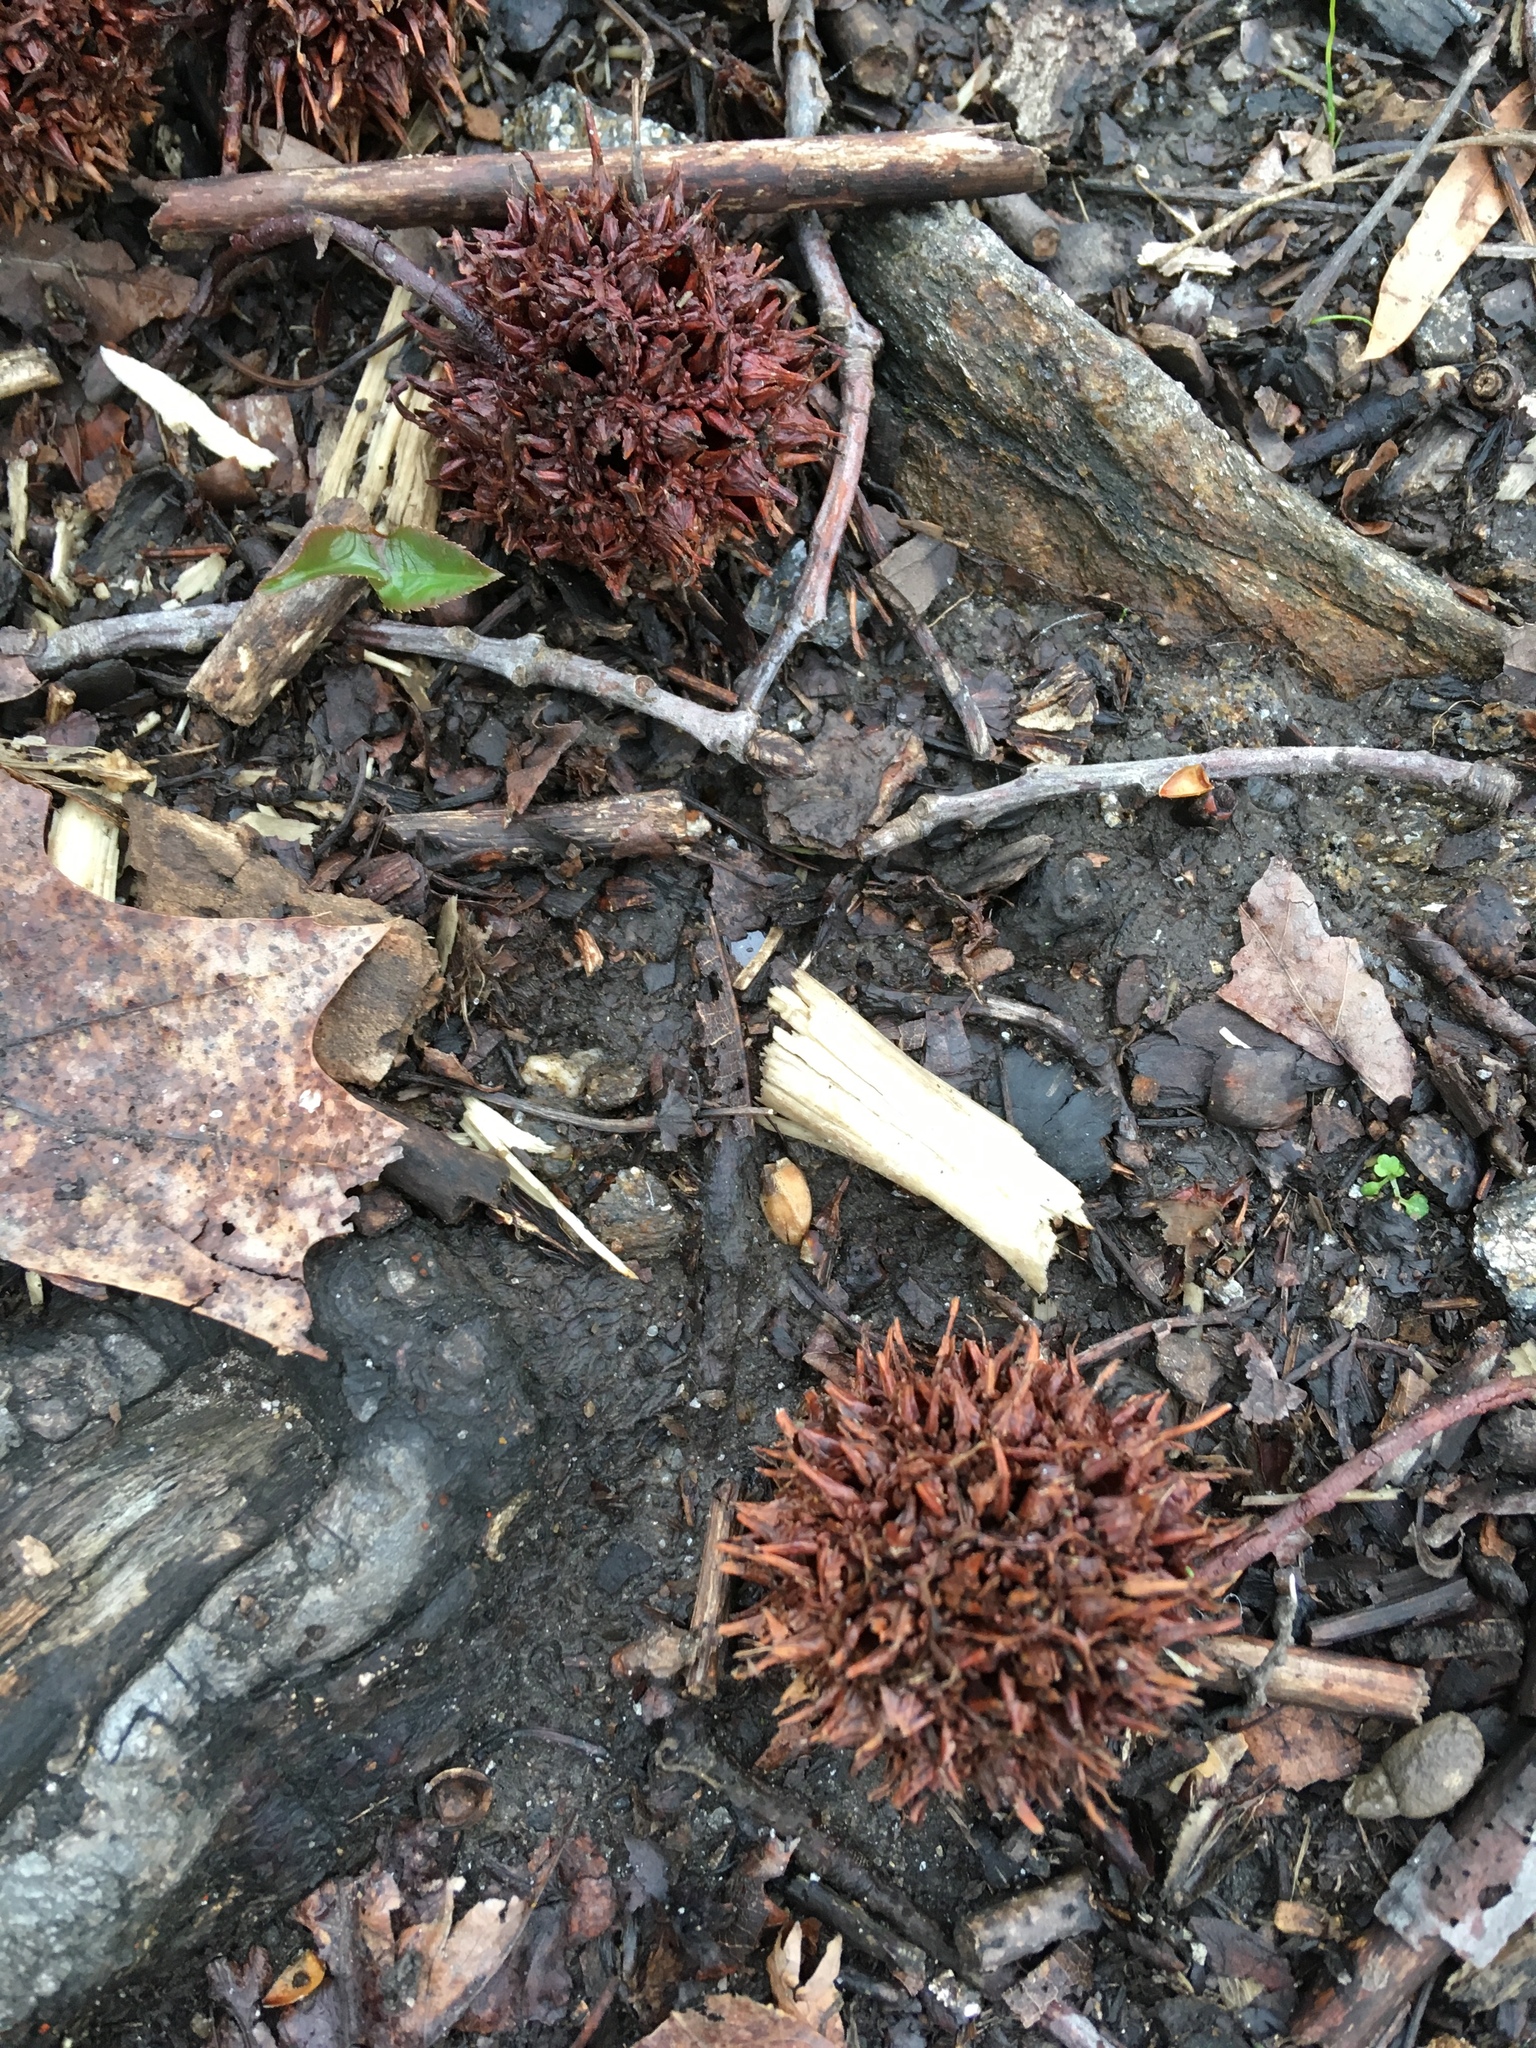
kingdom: Plantae
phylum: Tracheophyta
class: Magnoliopsida
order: Saxifragales
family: Altingiaceae
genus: Liquidambar
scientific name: Liquidambar styraciflua
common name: Sweet gum
